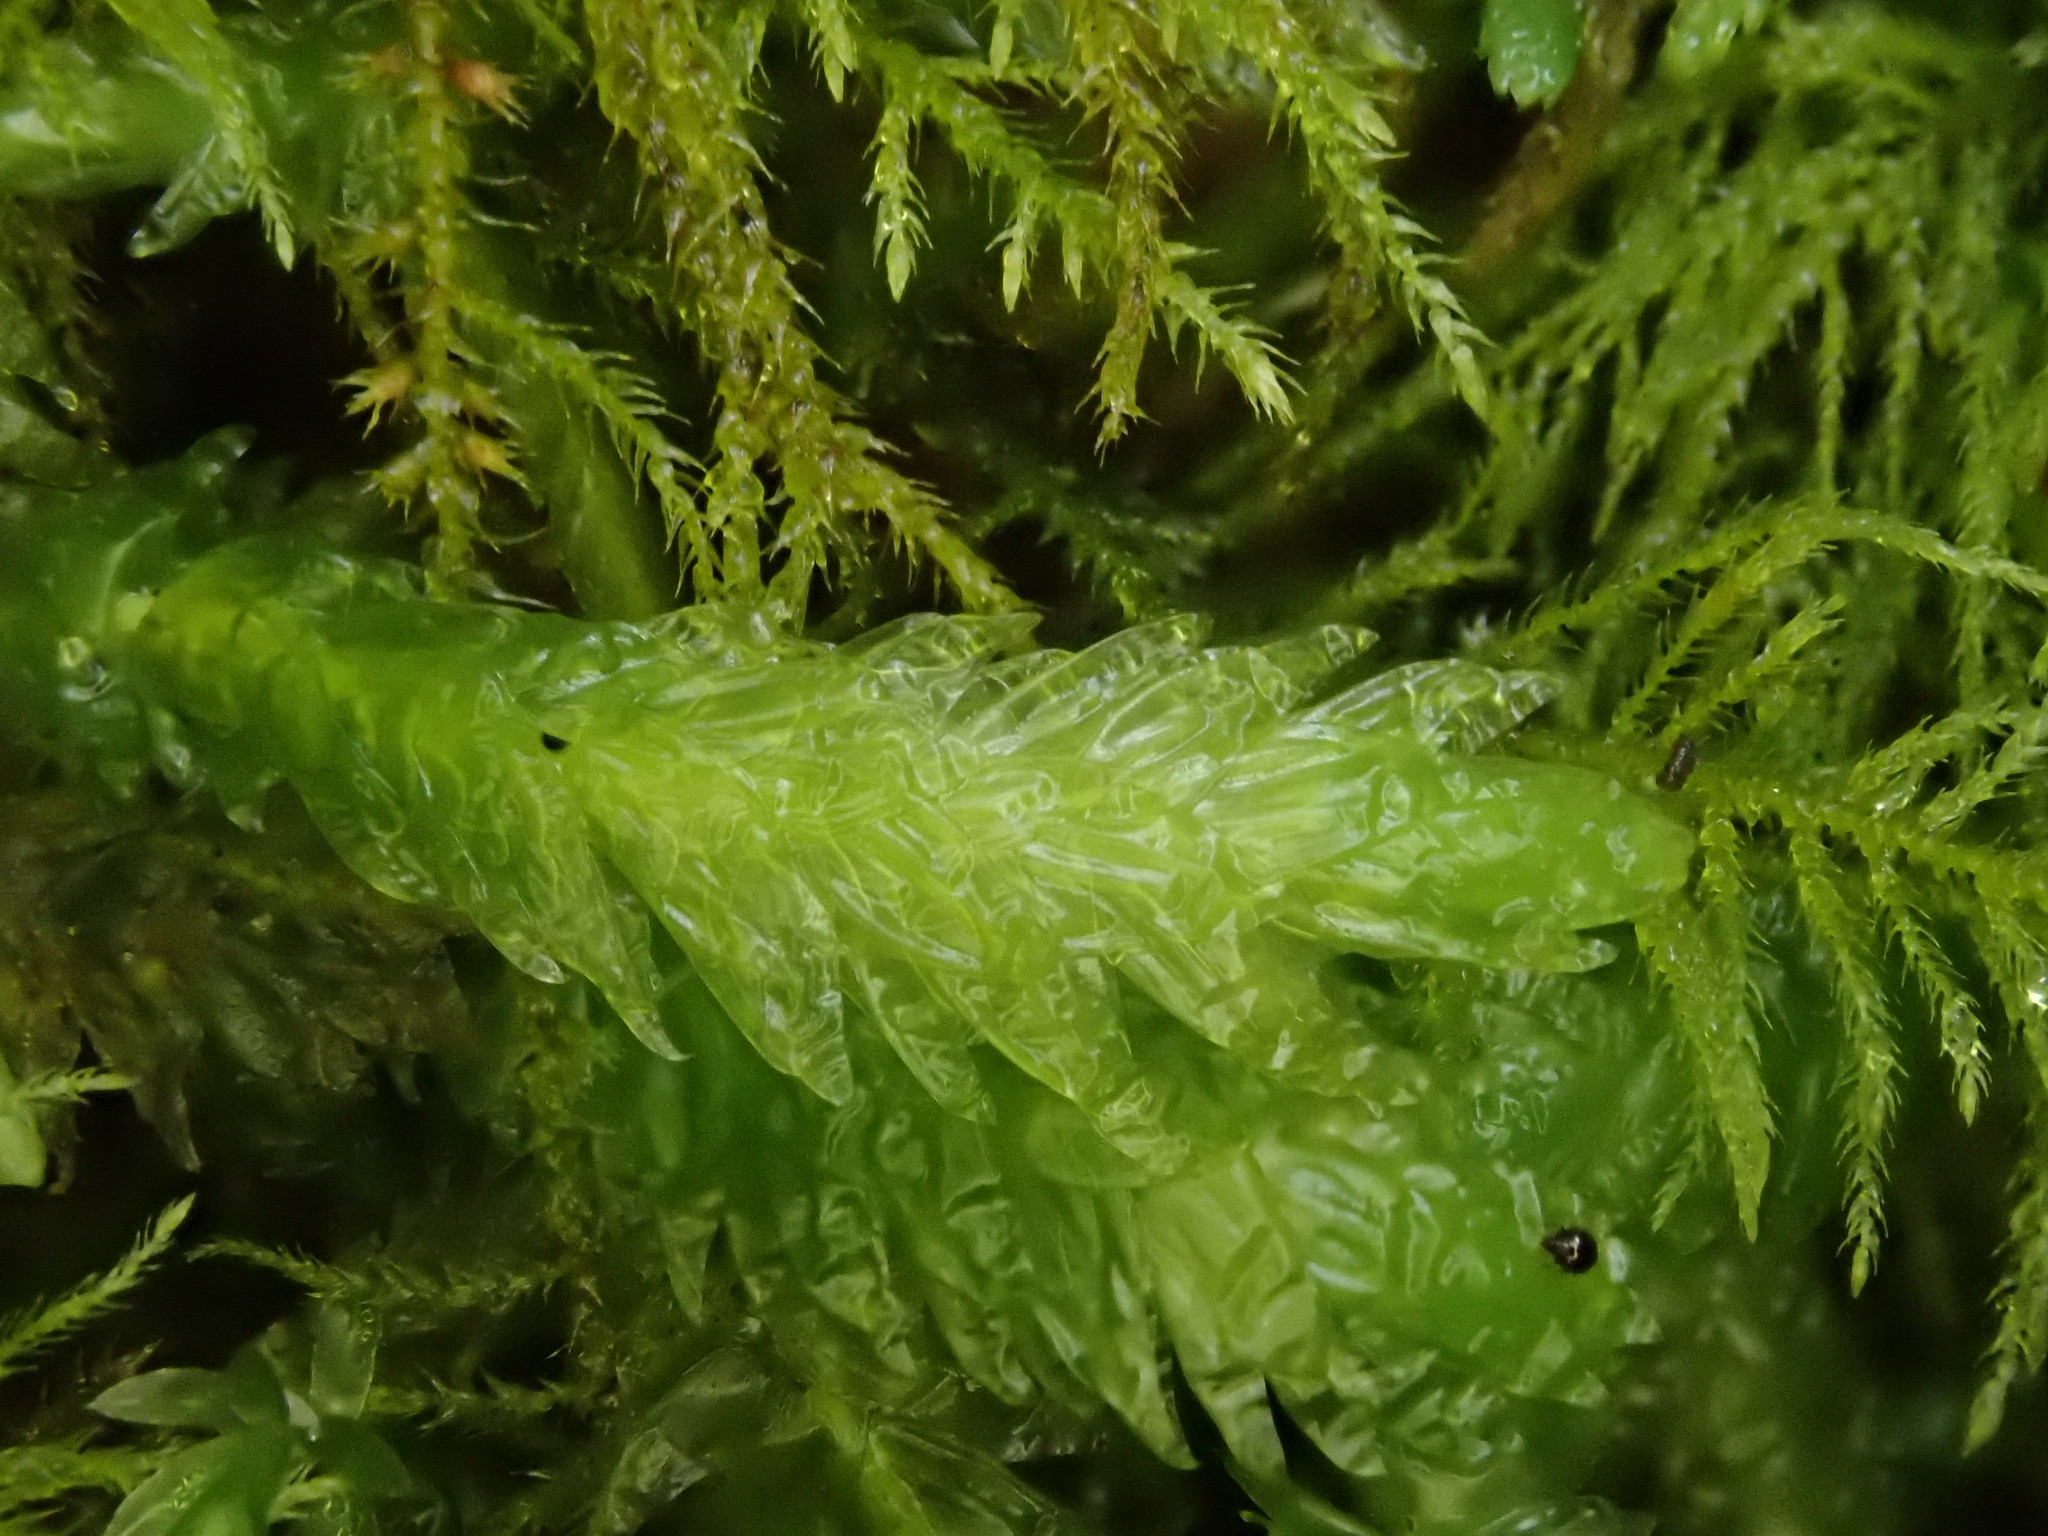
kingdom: Plantae
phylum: Bryophyta
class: Bryopsida
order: Hypnales
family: Plagiotheciaceae
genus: Plagiothecium
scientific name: Plagiothecium undulatum
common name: Waved silk-moss
